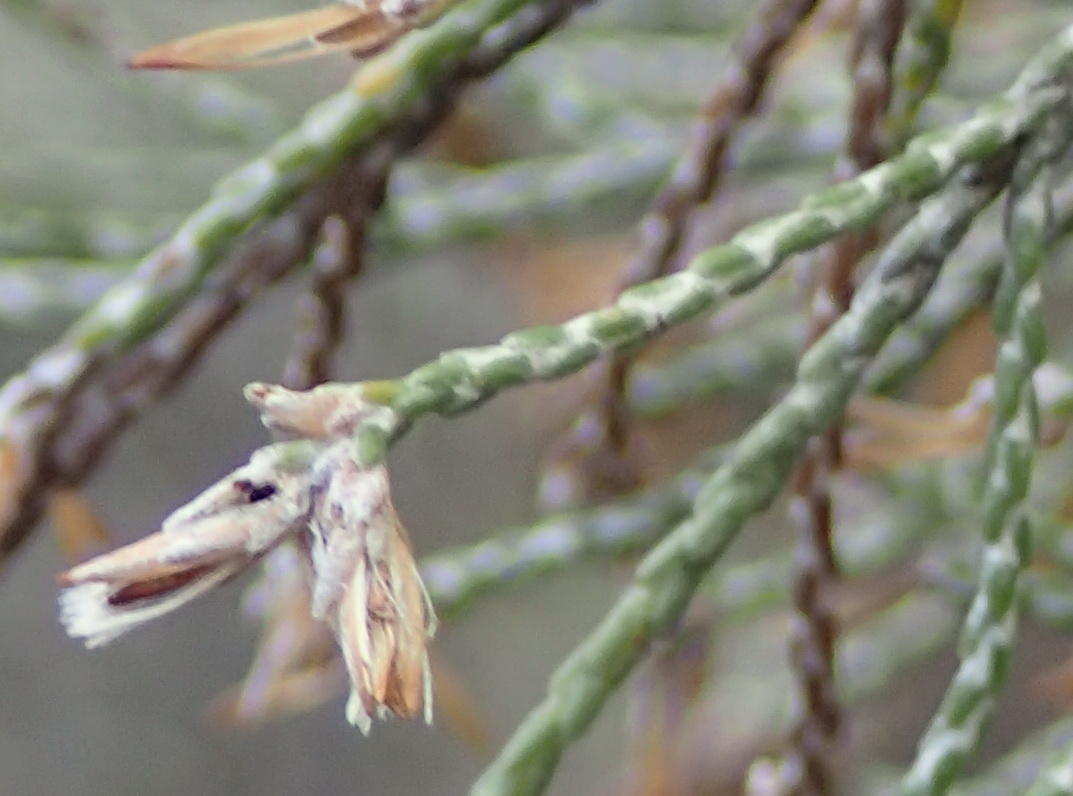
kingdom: Plantae
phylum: Tracheophyta
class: Magnoliopsida
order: Asterales
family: Asteraceae
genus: Dicerothamnus
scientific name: Dicerothamnus rhinocerotis
